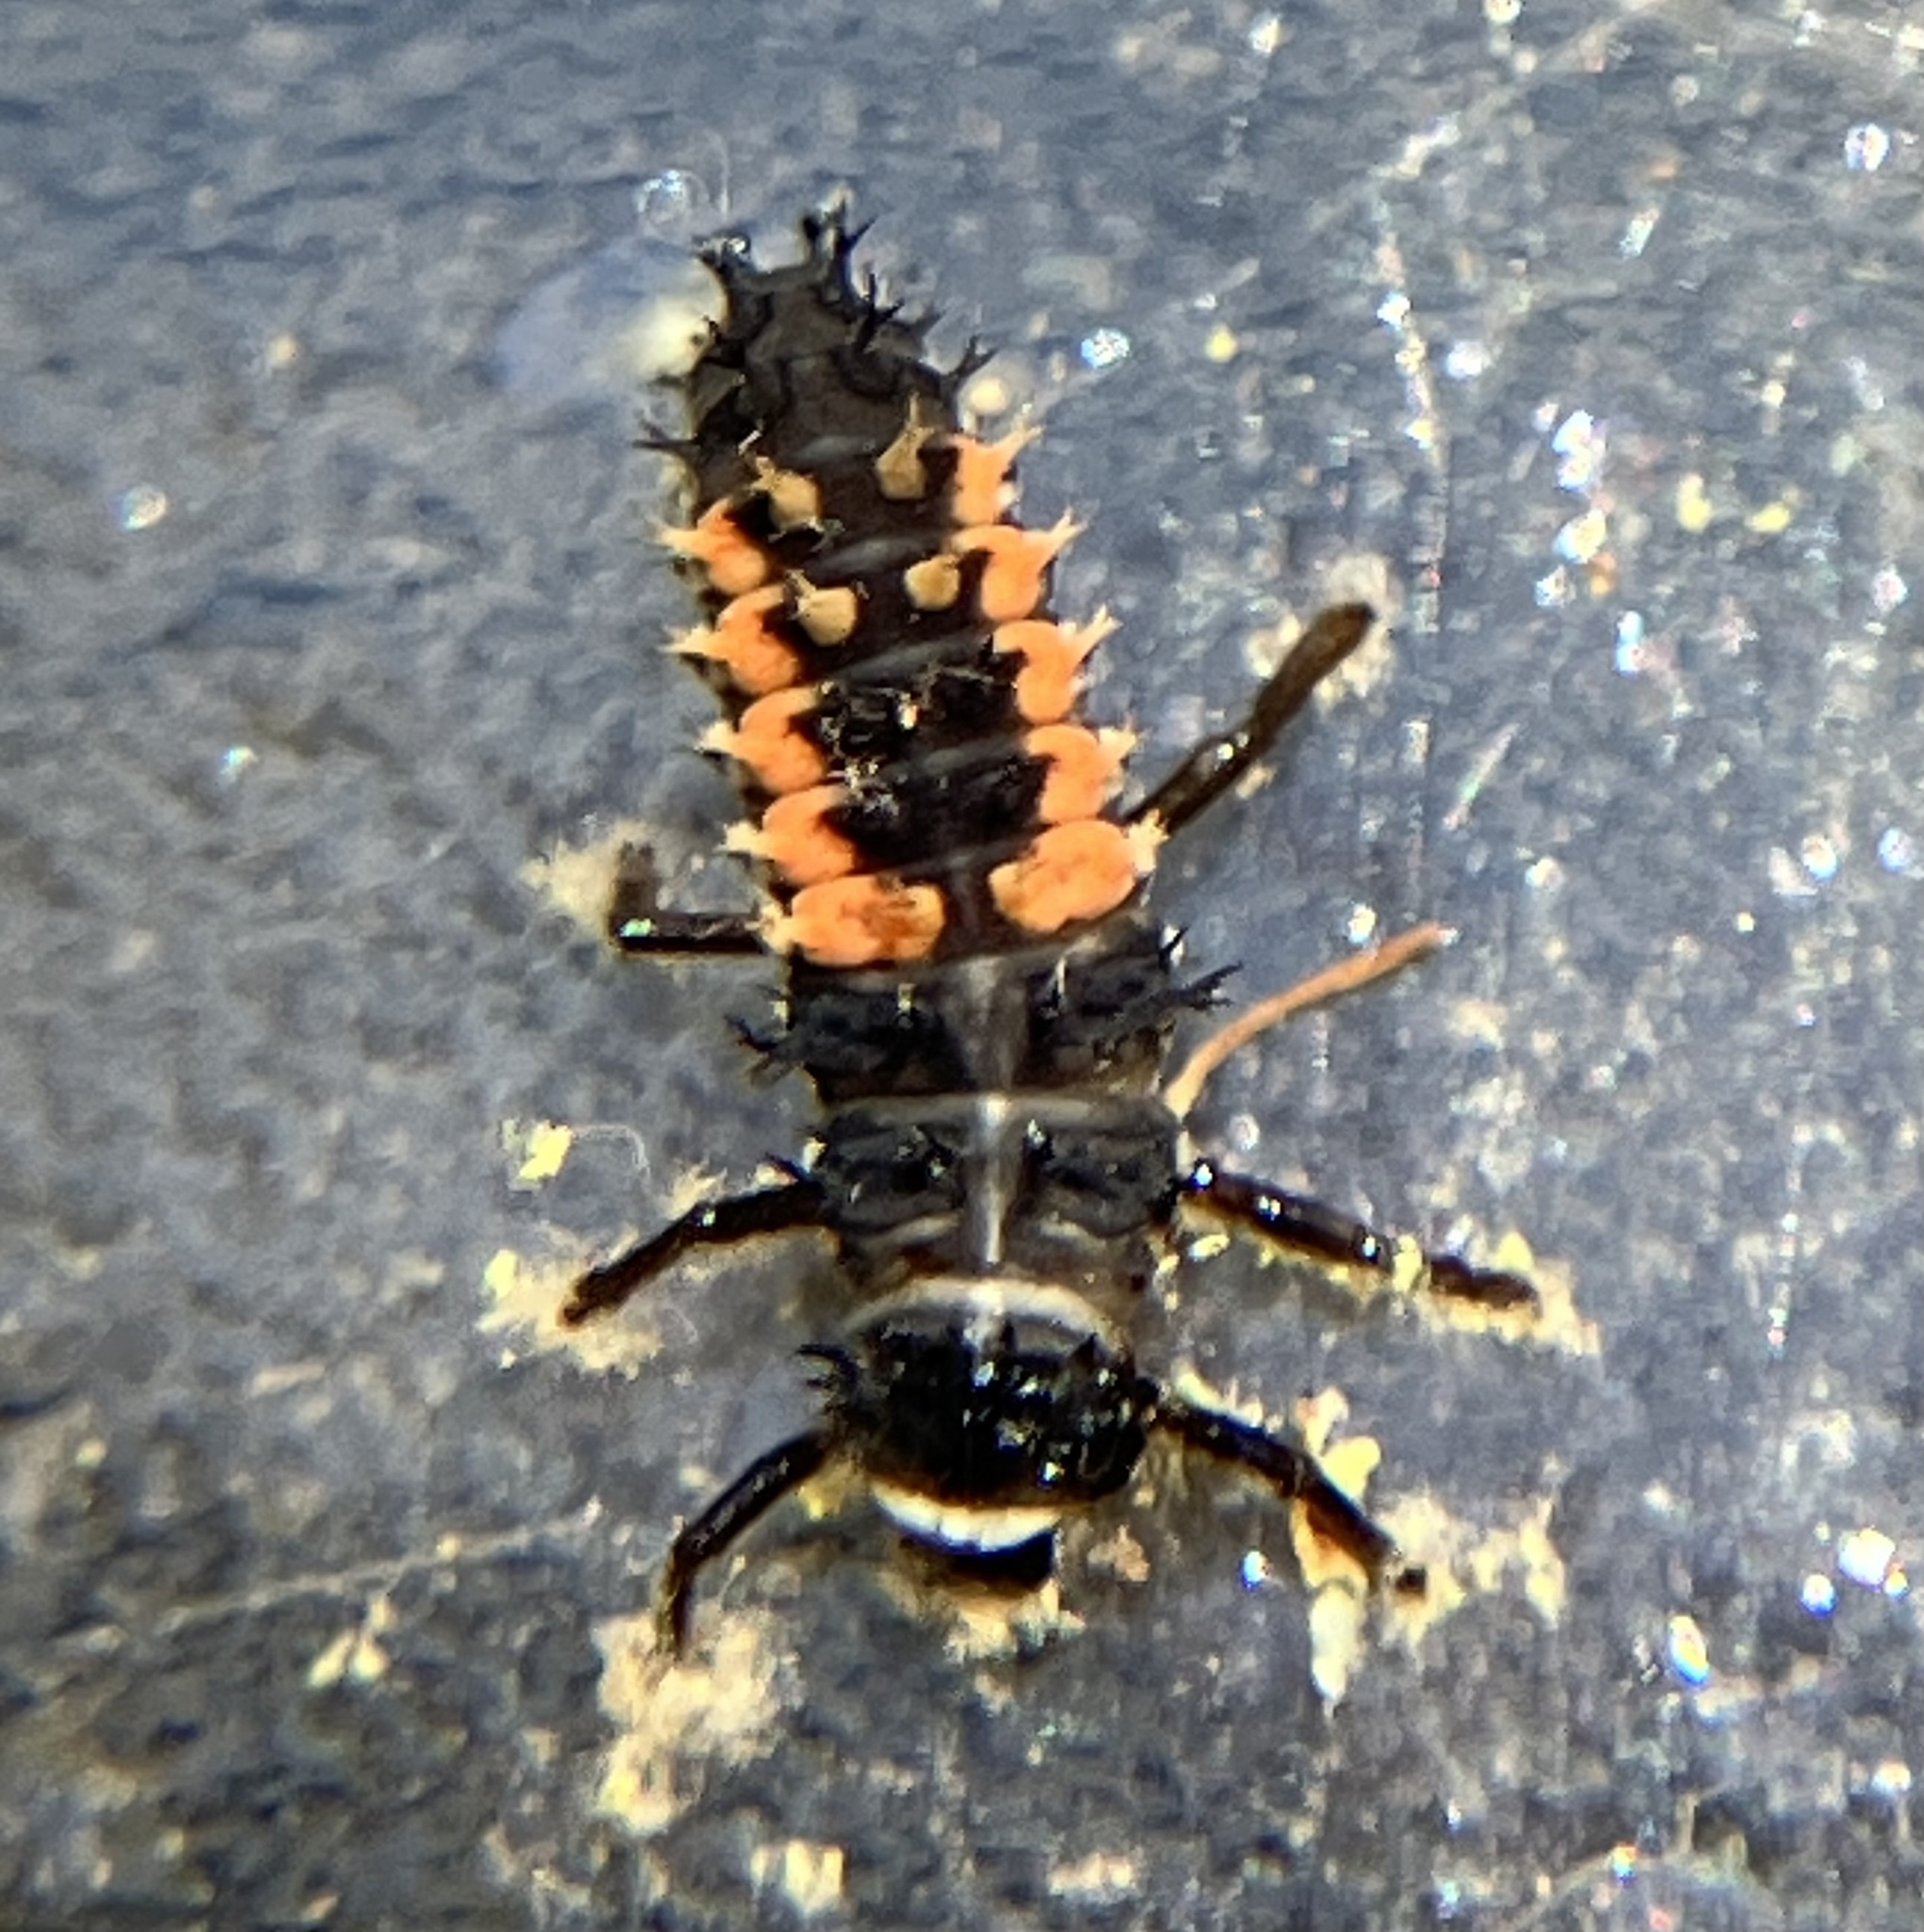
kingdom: Animalia
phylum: Arthropoda
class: Insecta
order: Coleoptera
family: Coccinellidae
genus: Harmonia
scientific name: Harmonia axyridis
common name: Harlequin ladybird
